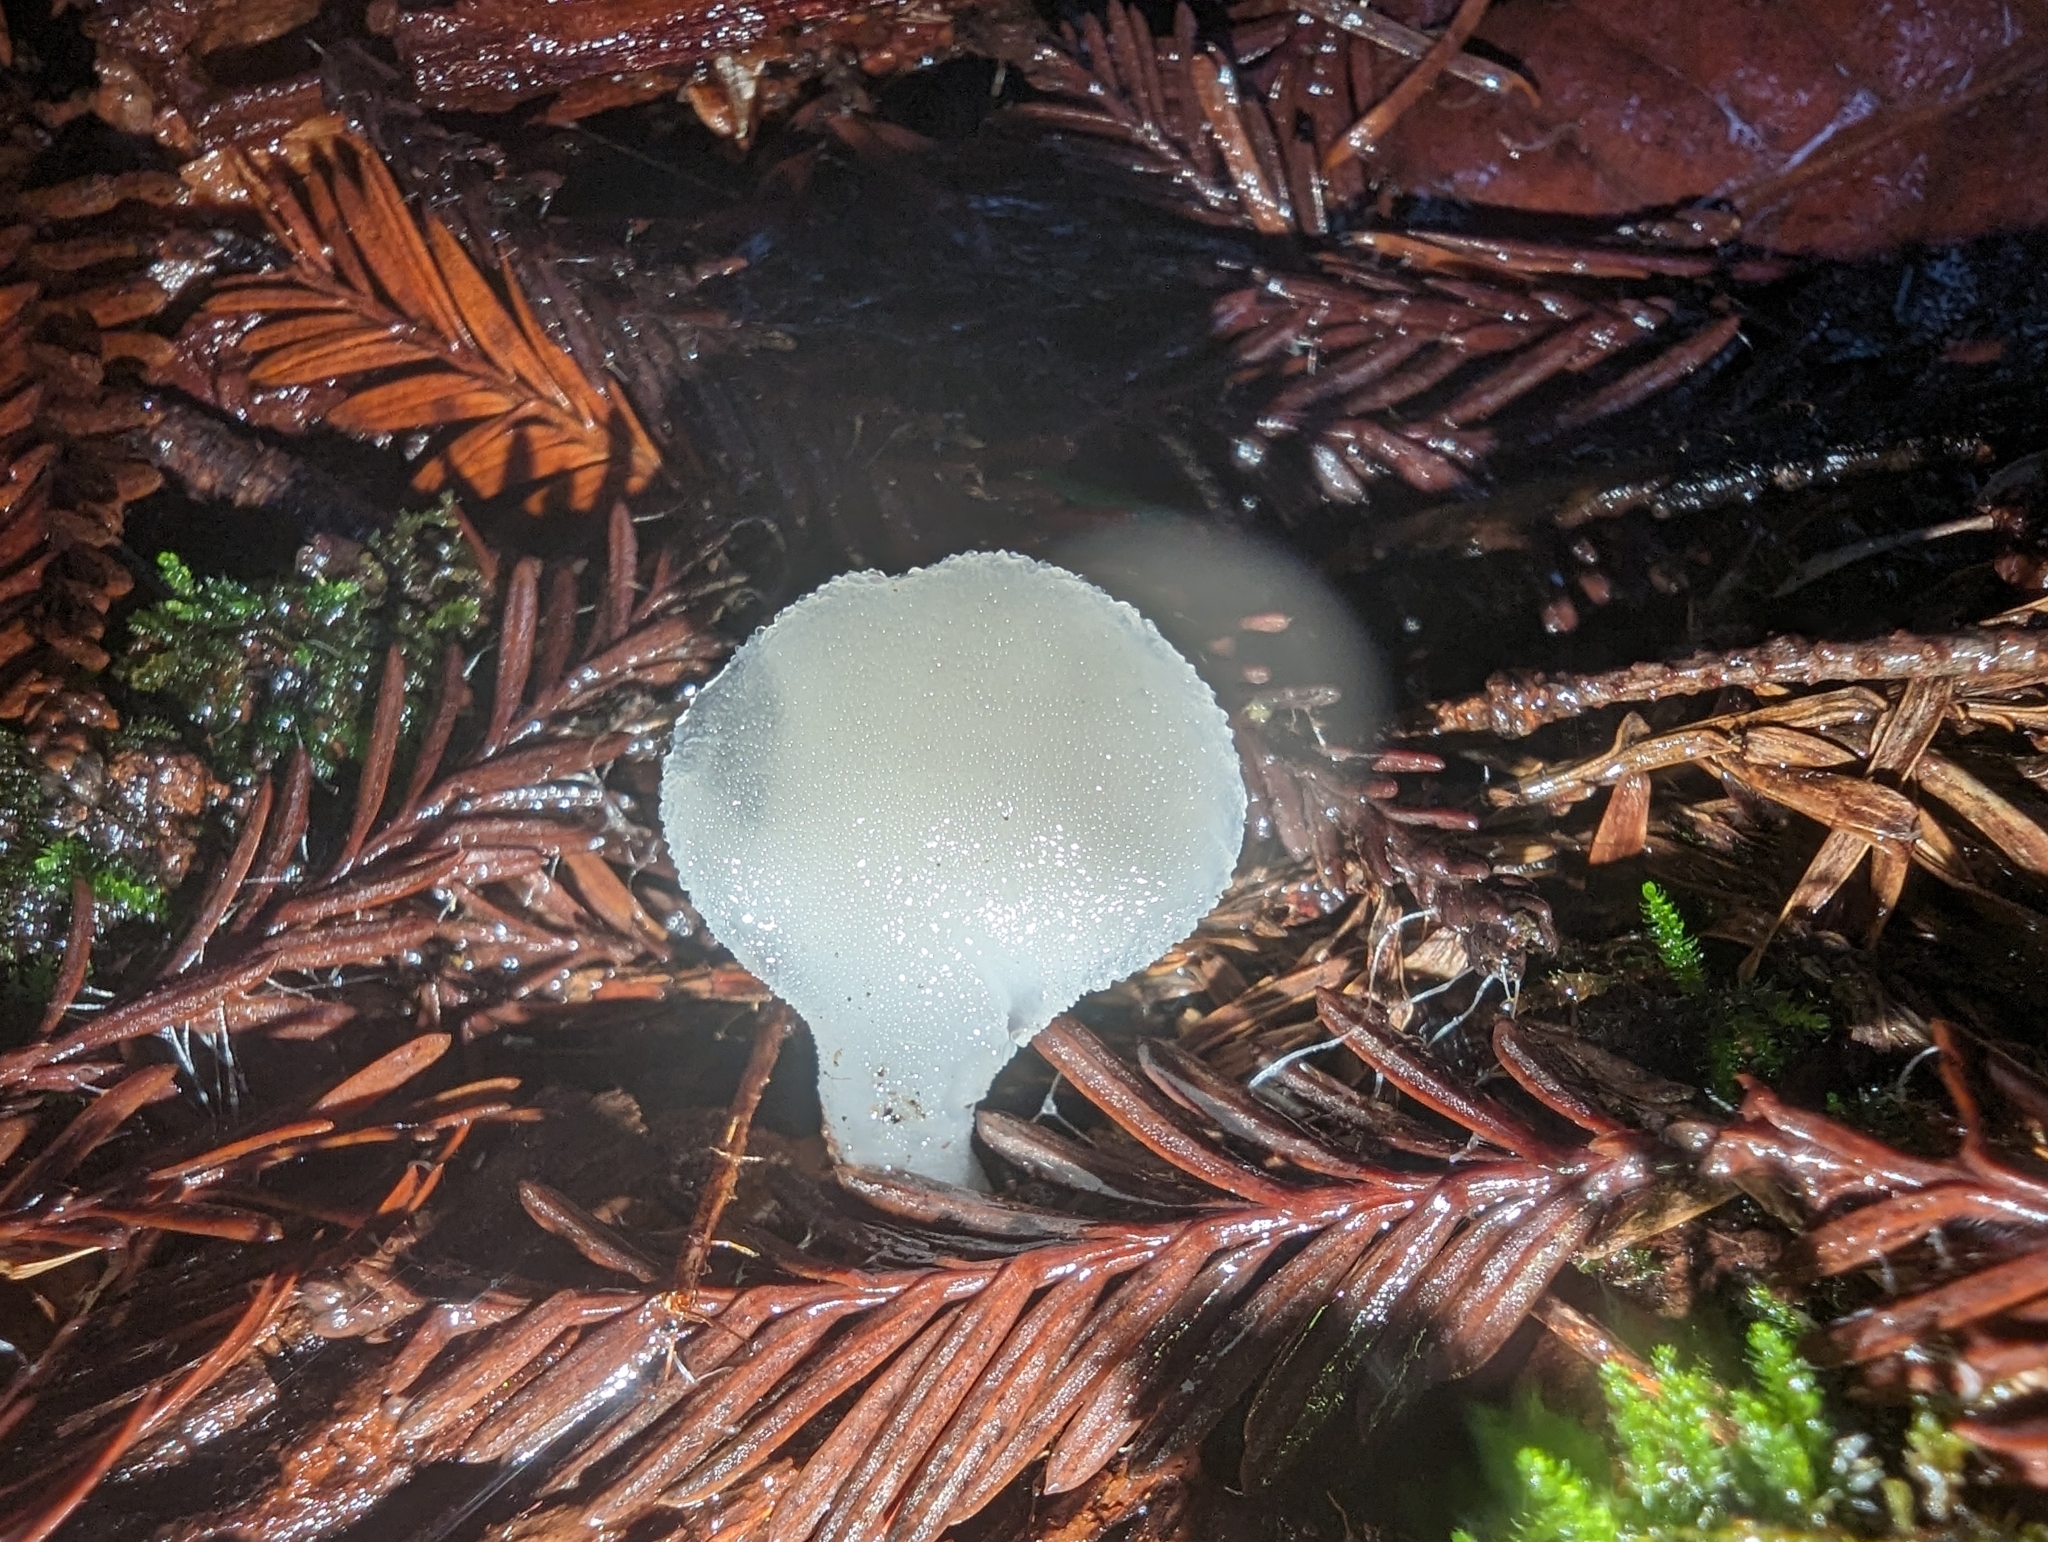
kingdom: Fungi
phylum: Basidiomycota
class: Agaricomycetes
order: Auriculariales
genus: Pseudohydnum
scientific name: Pseudohydnum gelatinosum
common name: Jelly tongue
